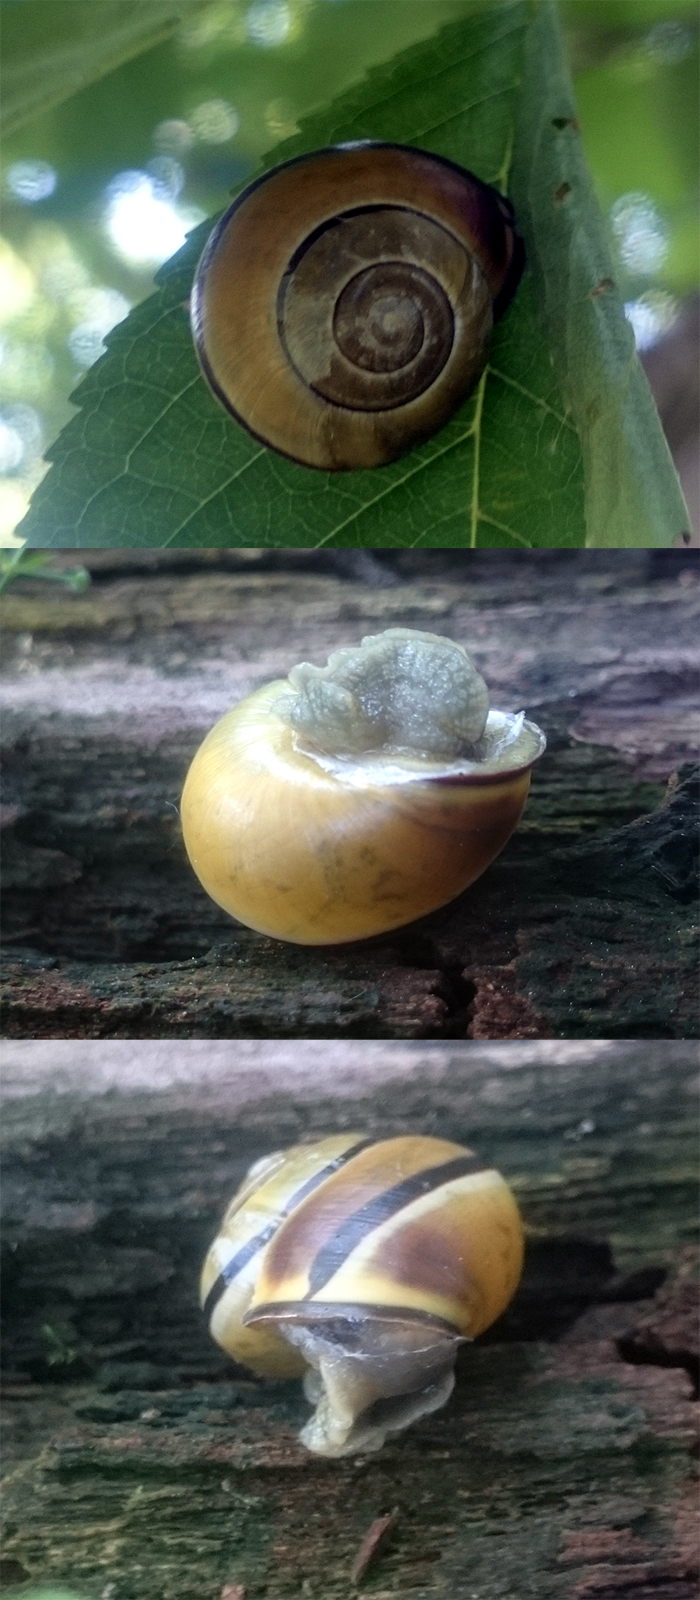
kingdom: Animalia
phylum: Mollusca
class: Gastropoda
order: Stylommatophora
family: Helicidae
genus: Cepaea
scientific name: Cepaea nemoralis
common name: Grovesnail
